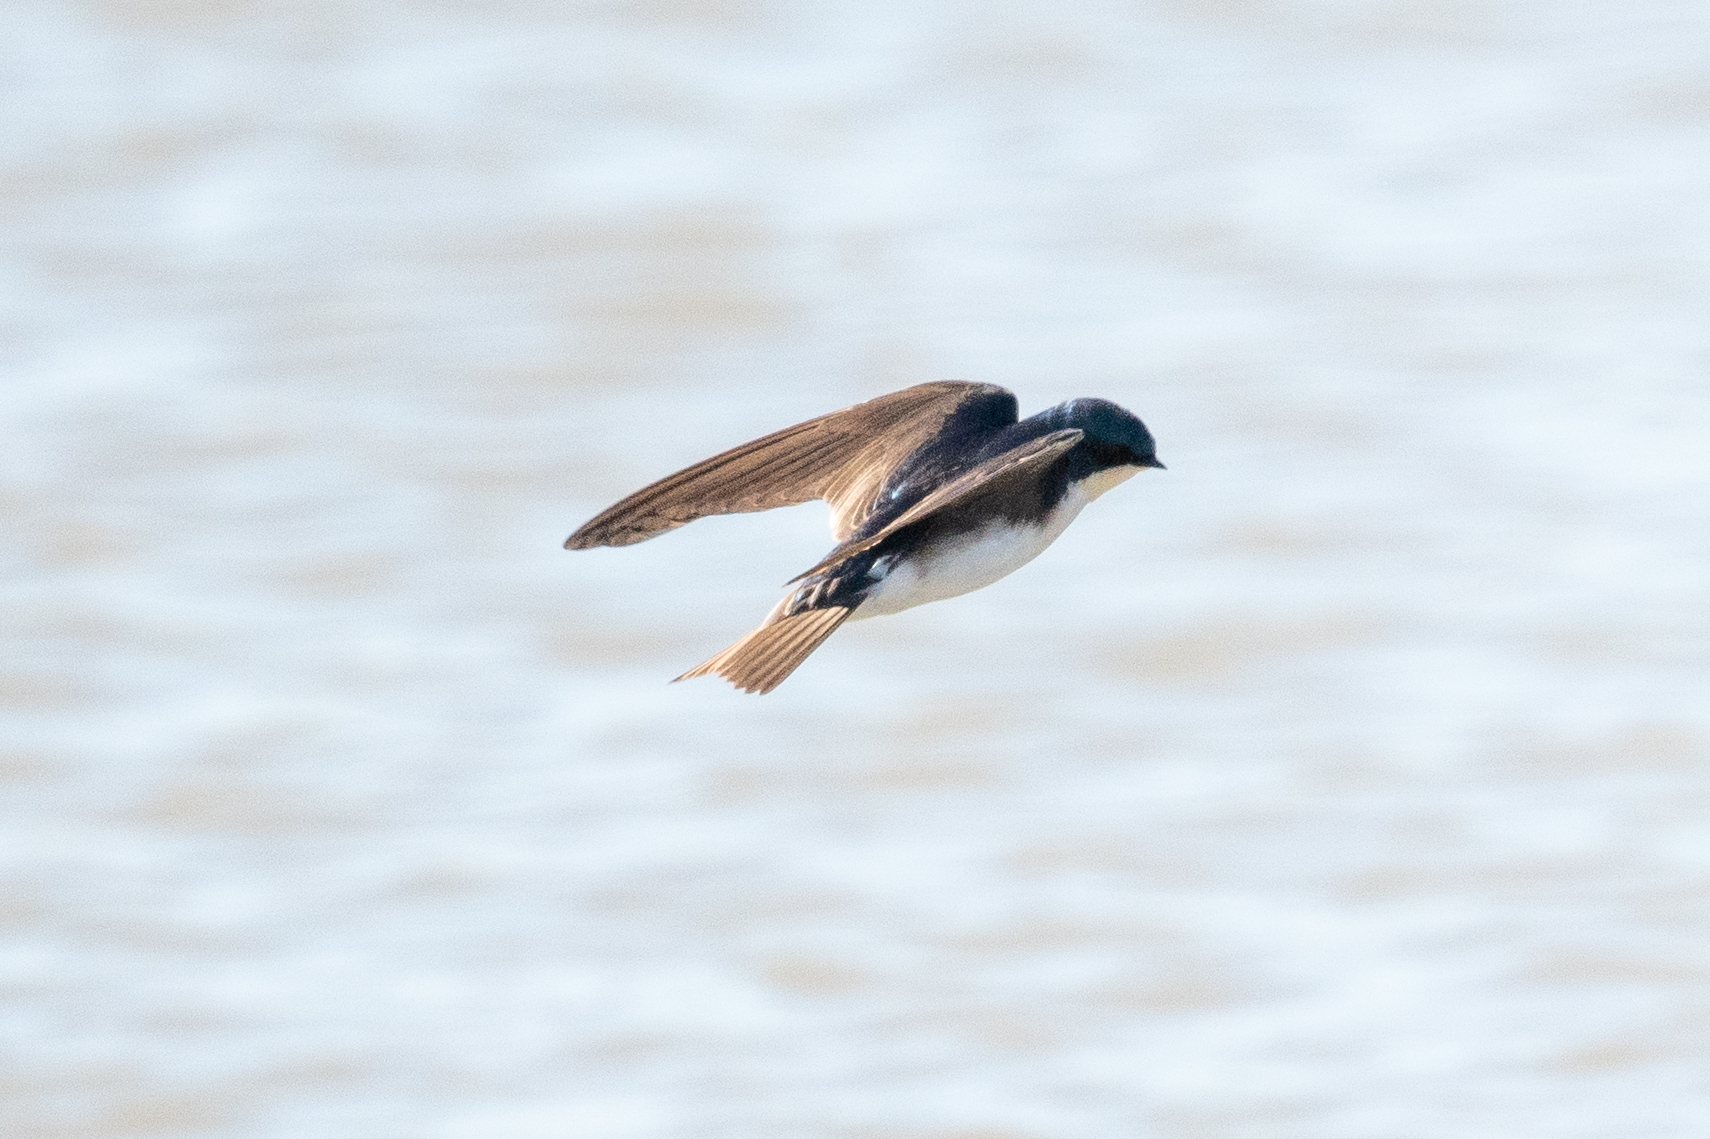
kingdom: Animalia
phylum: Chordata
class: Aves
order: Passeriformes
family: Hirundinidae
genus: Tachycineta
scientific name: Tachycineta bicolor
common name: Tree swallow
